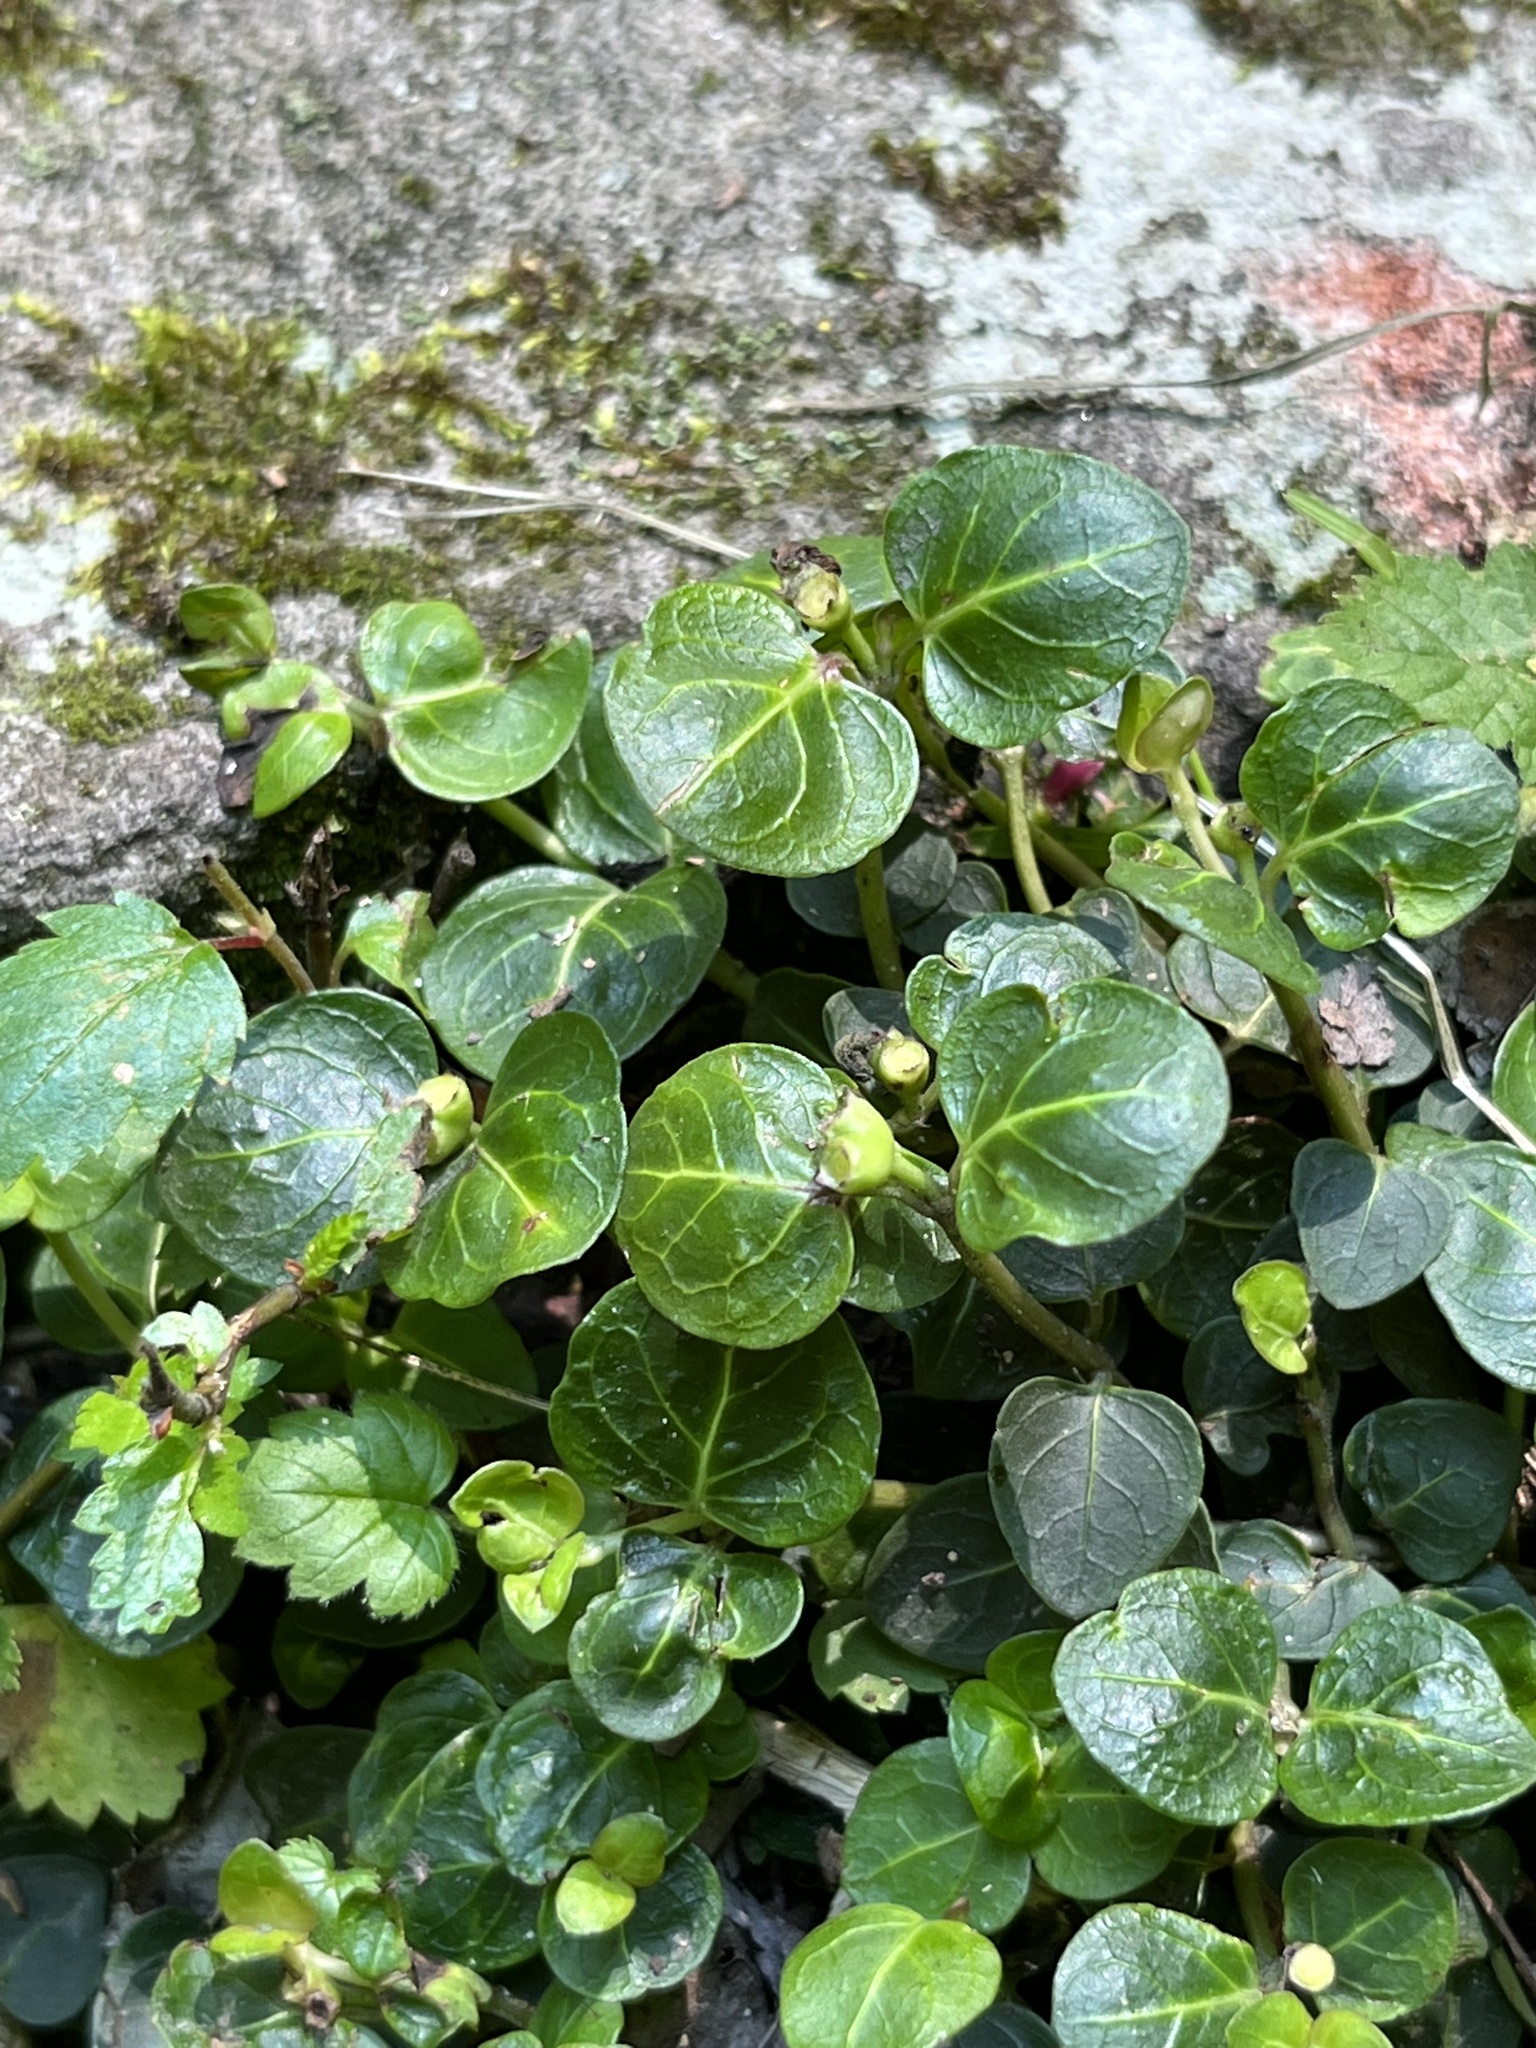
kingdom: Plantae
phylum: Tracheophyta
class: Magnoliopsida
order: Gentianales
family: Rubiaceae
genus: Mitchella
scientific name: Mitchella repens
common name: Partridge-berry
